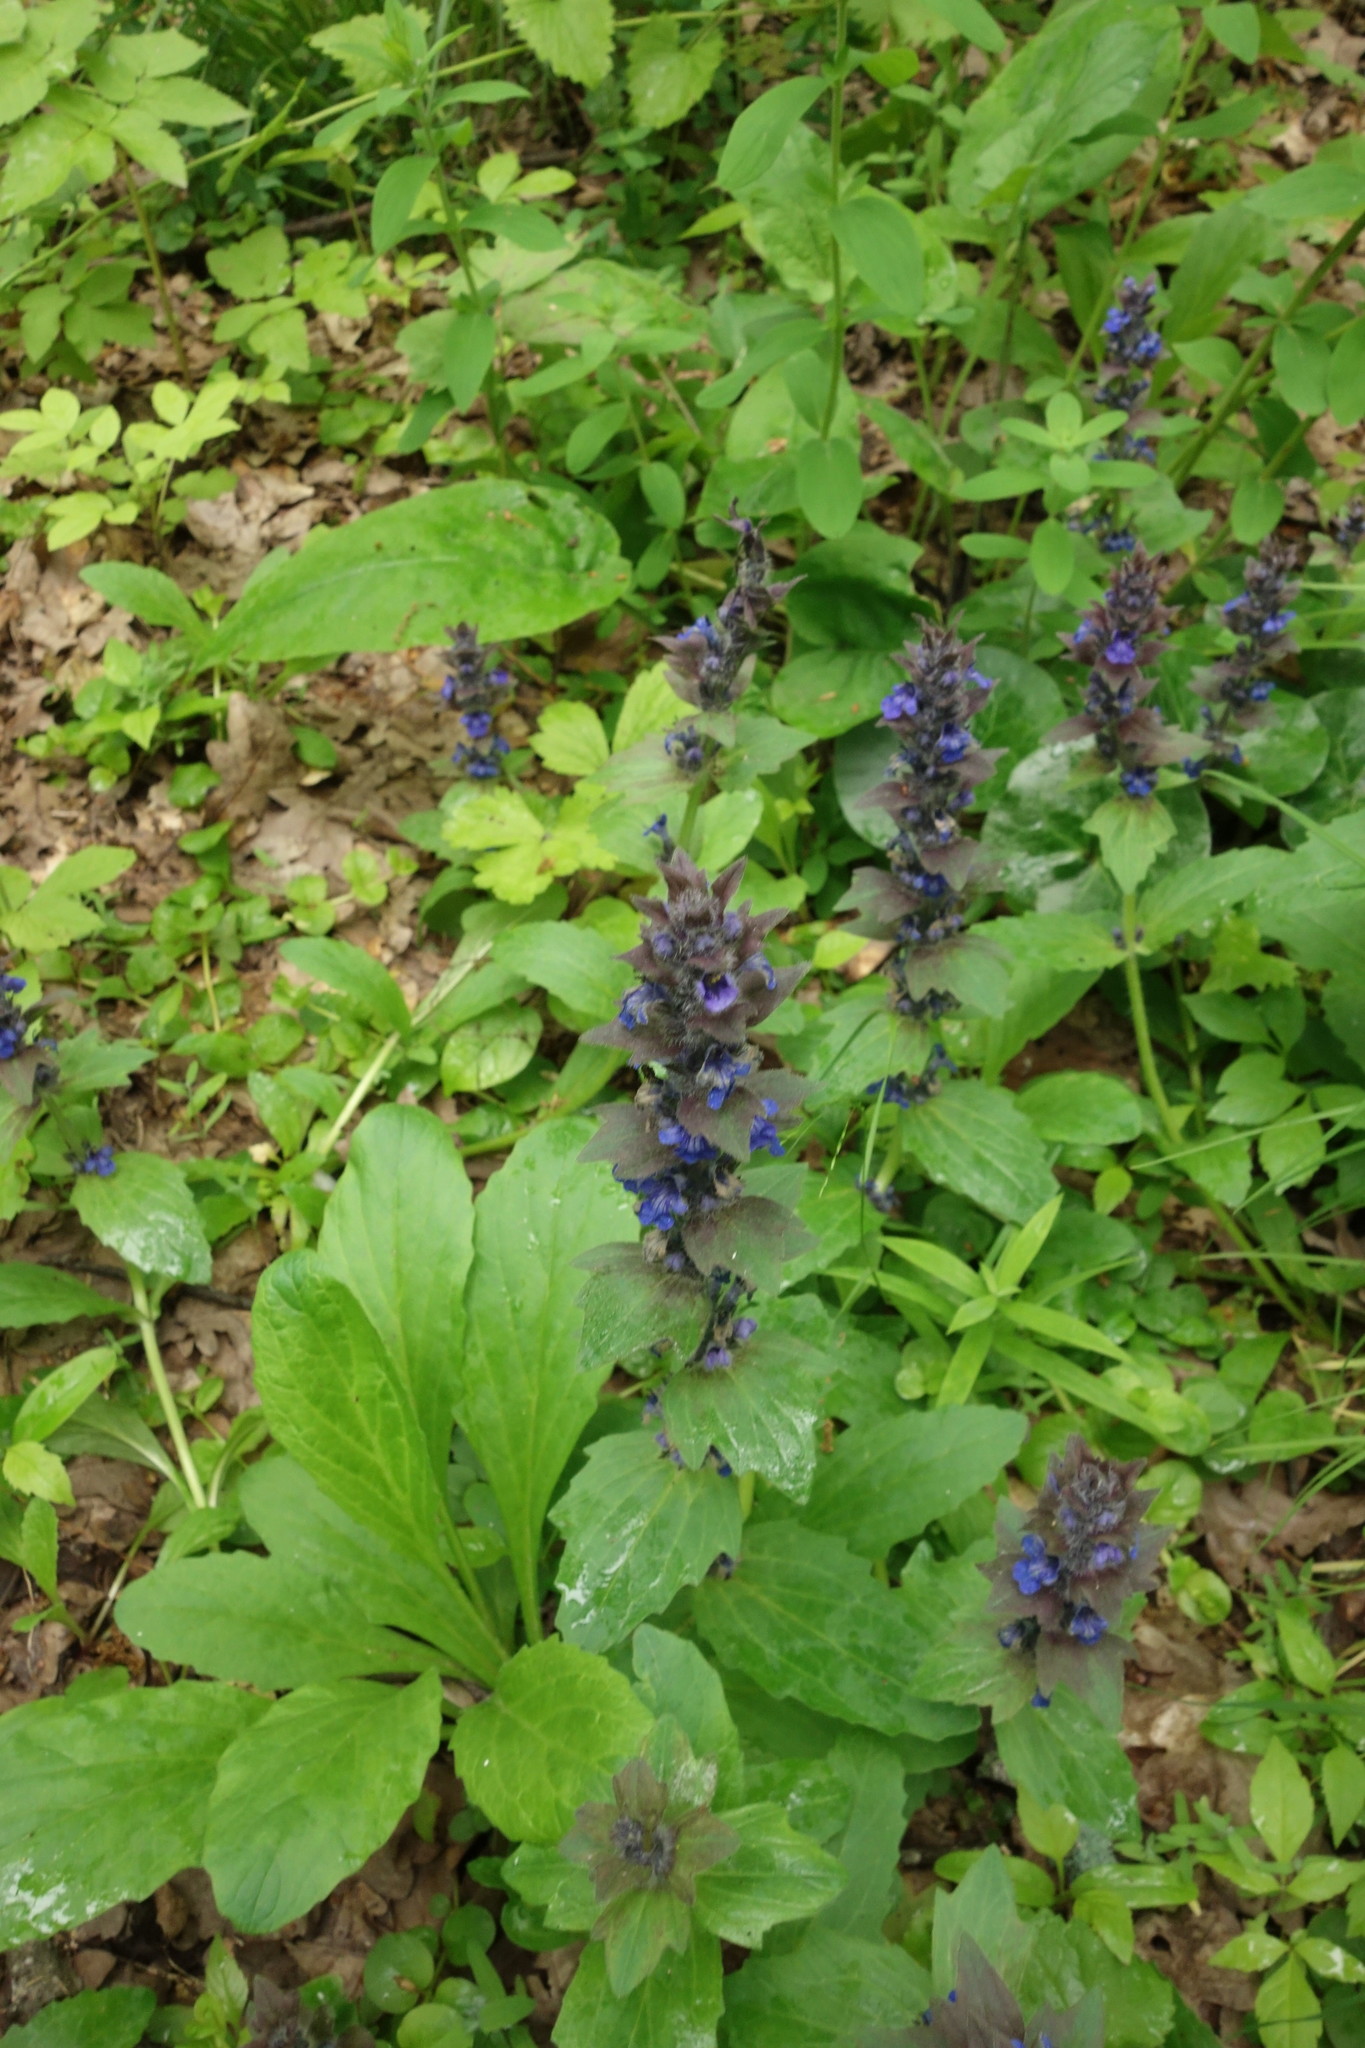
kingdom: Plantae
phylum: Tracheophyta
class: Magnoliopsida
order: Lamiales
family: Lamiaceae
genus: Ajuga
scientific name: Ajuga genevensis
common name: Blue bugle
